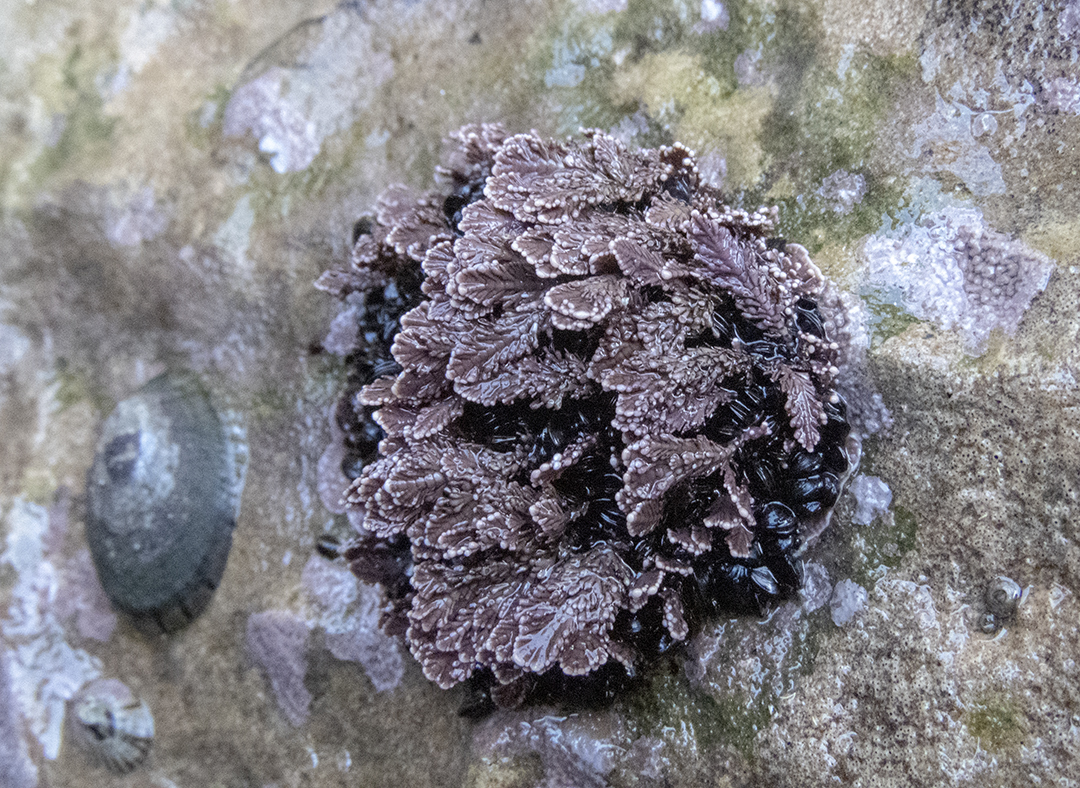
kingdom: Plantae
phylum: Rhodophyta
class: Florideophyceae
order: Corallinales
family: Corallinaceae
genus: Arthrocardia
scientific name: Arthrocardia corymbosa
